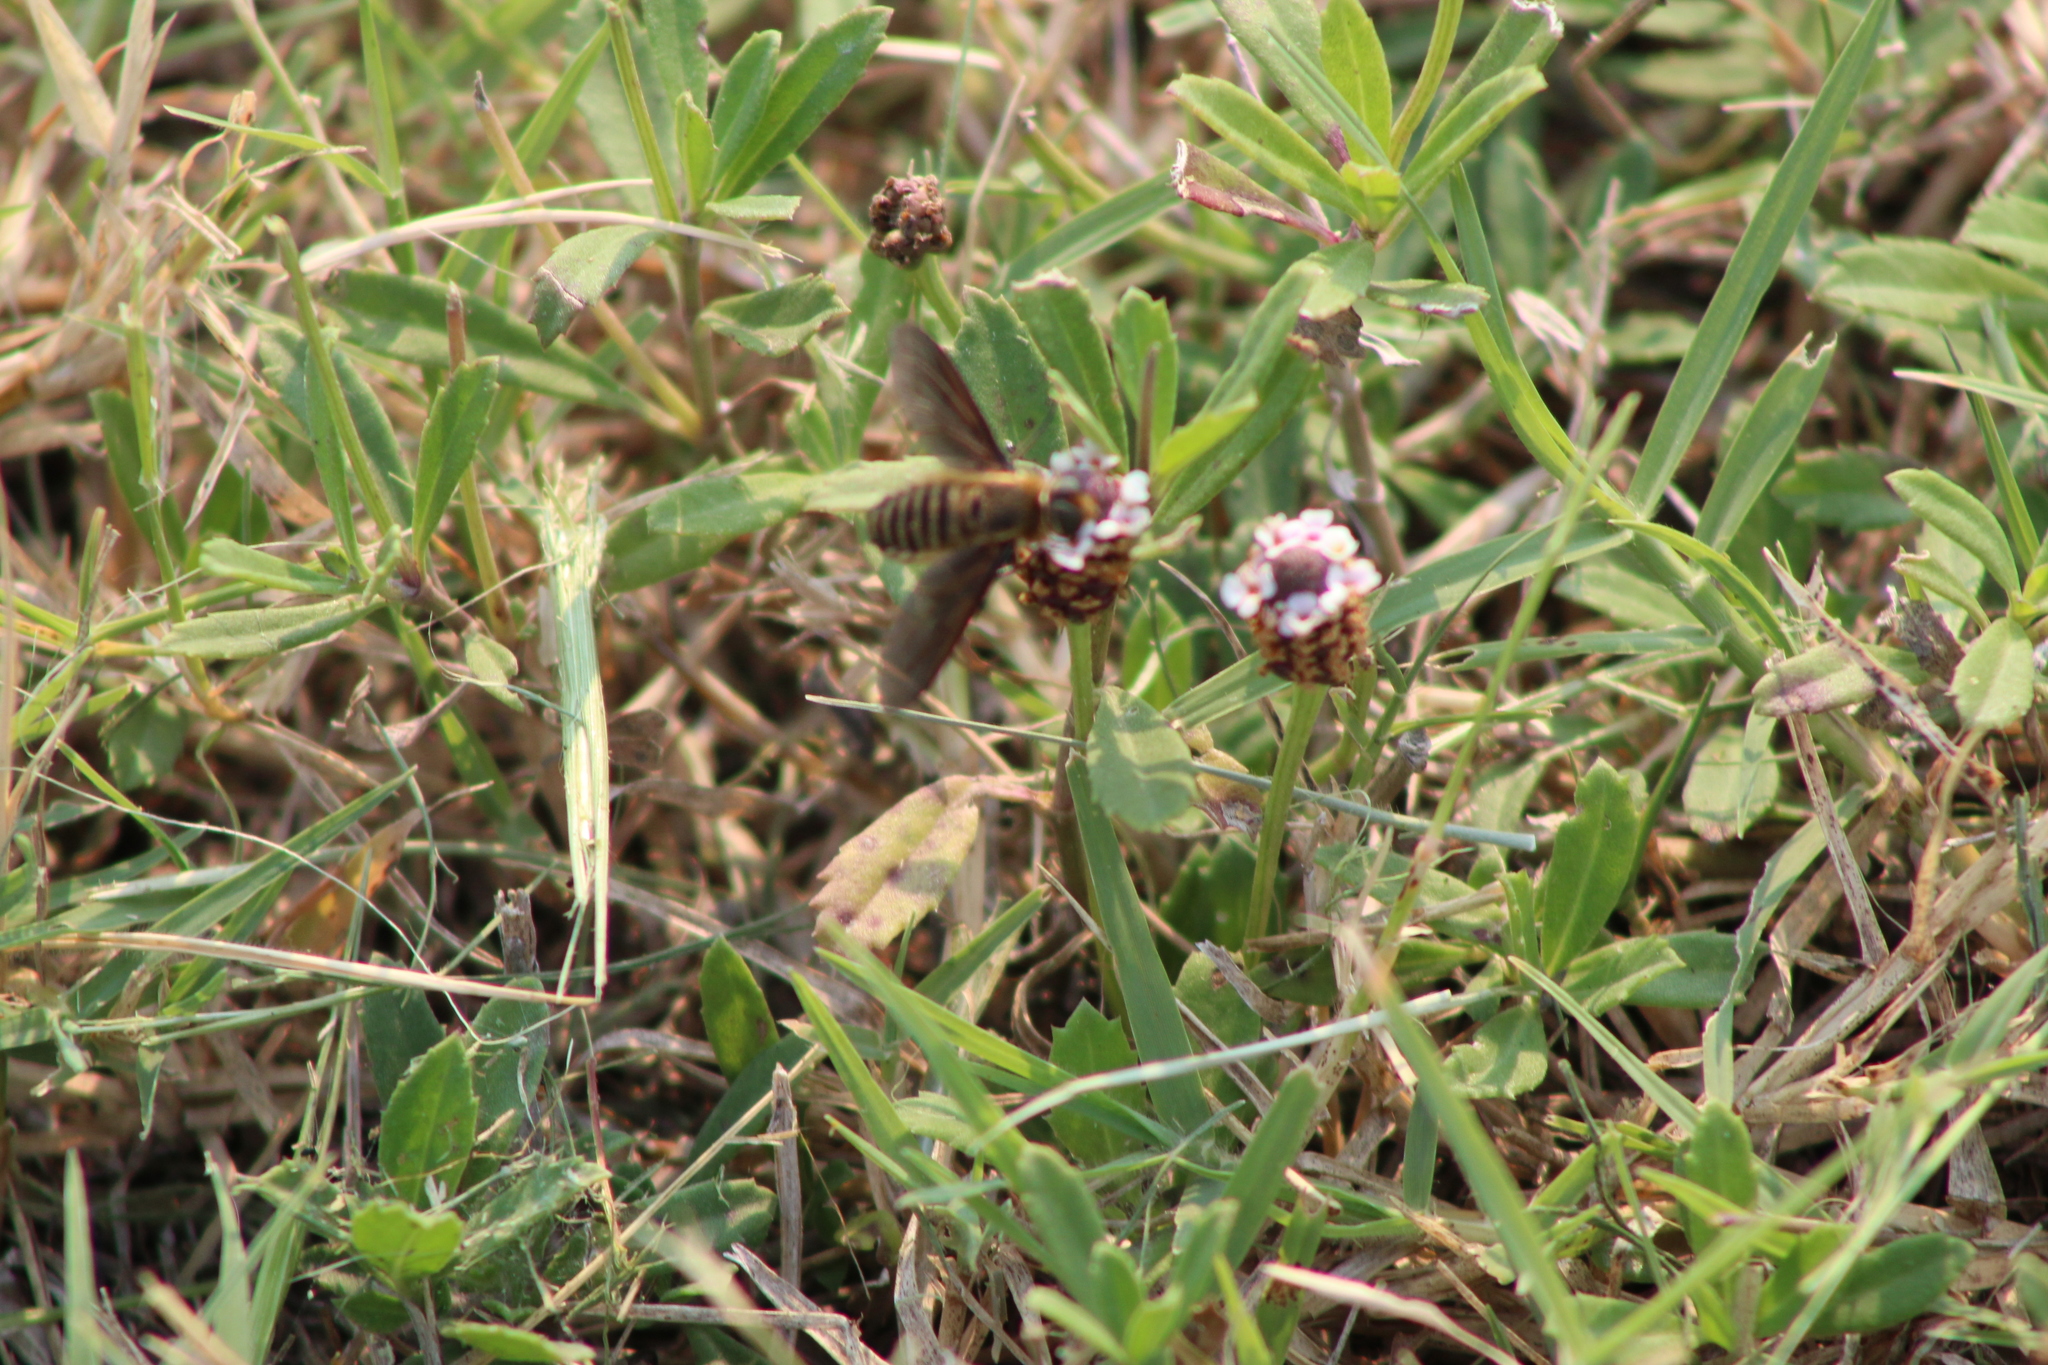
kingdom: Plantae
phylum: Tracheophyta
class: Magnoliopsida
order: Lamiales
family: Verbenaceae
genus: Phyla
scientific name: Phyla nodiflora
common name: Frogfruit
